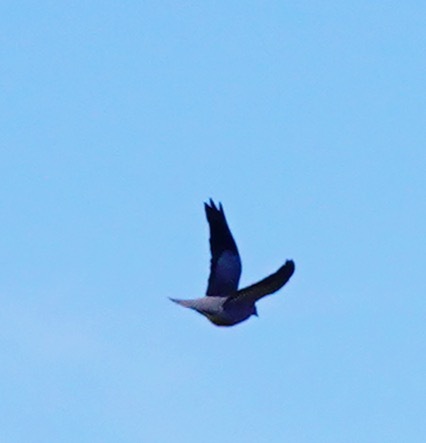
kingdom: Animalia
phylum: Chordata
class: Aves
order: Columbiformes
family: Columbidae
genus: Patagioenas
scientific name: Patagioenas fasciata
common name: Band-tailed pigeon
